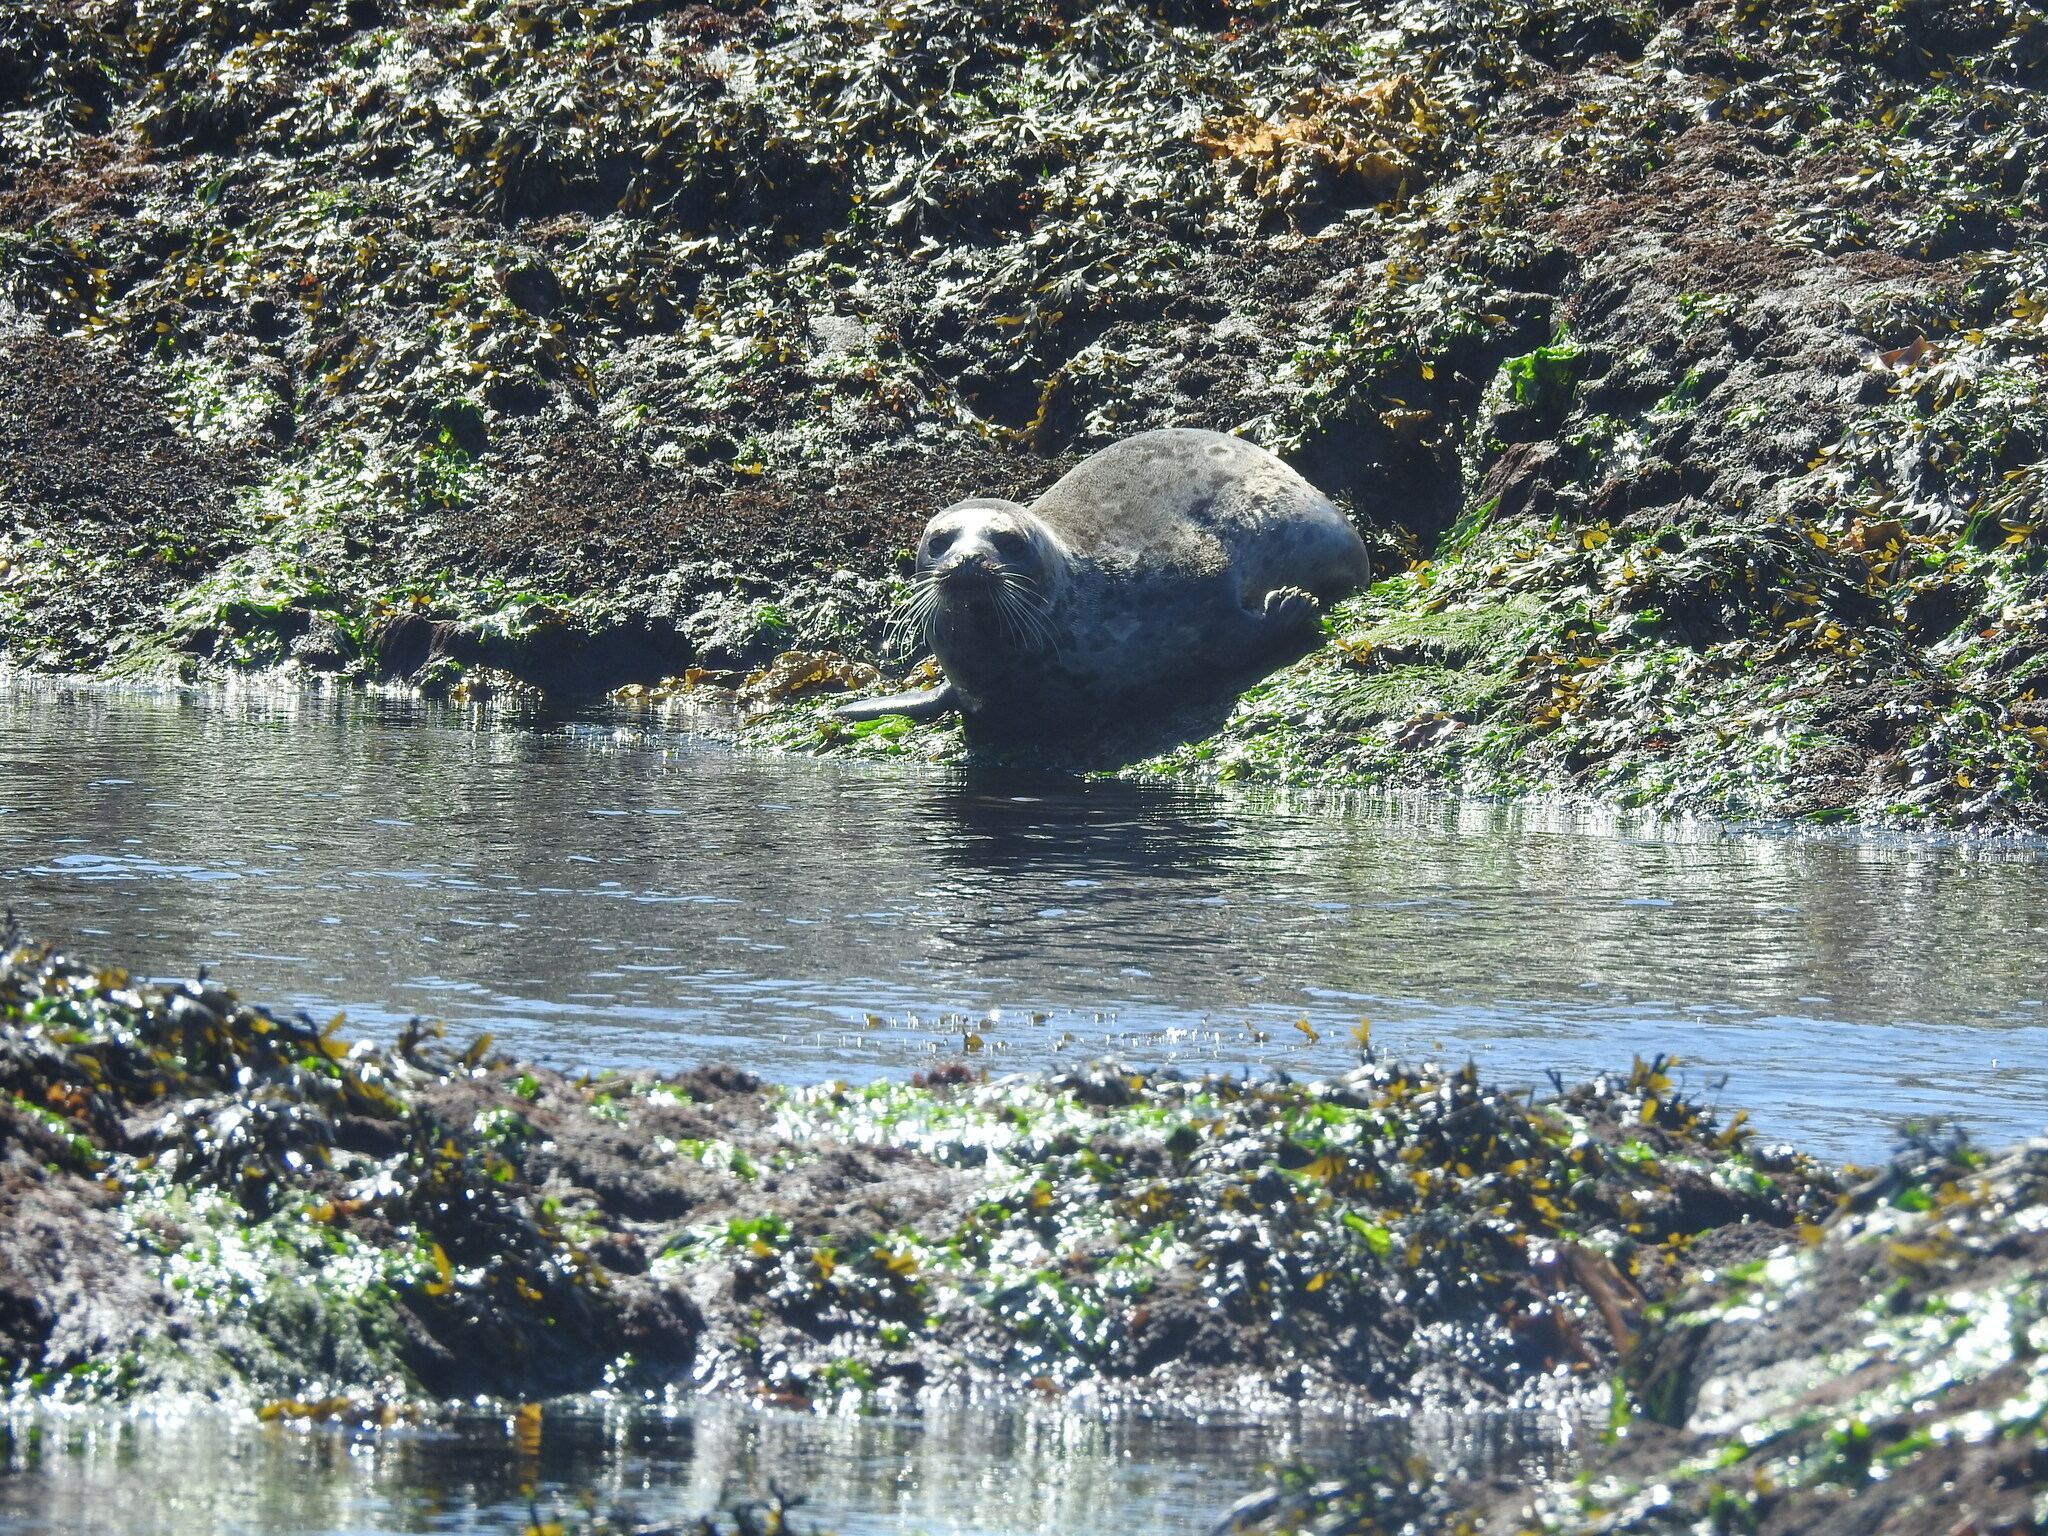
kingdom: Animalia
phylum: Chordata
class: Mammalia
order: Carnivora
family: Phocidae
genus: Phoca
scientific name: Phoca vitulina
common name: Harbor seal
